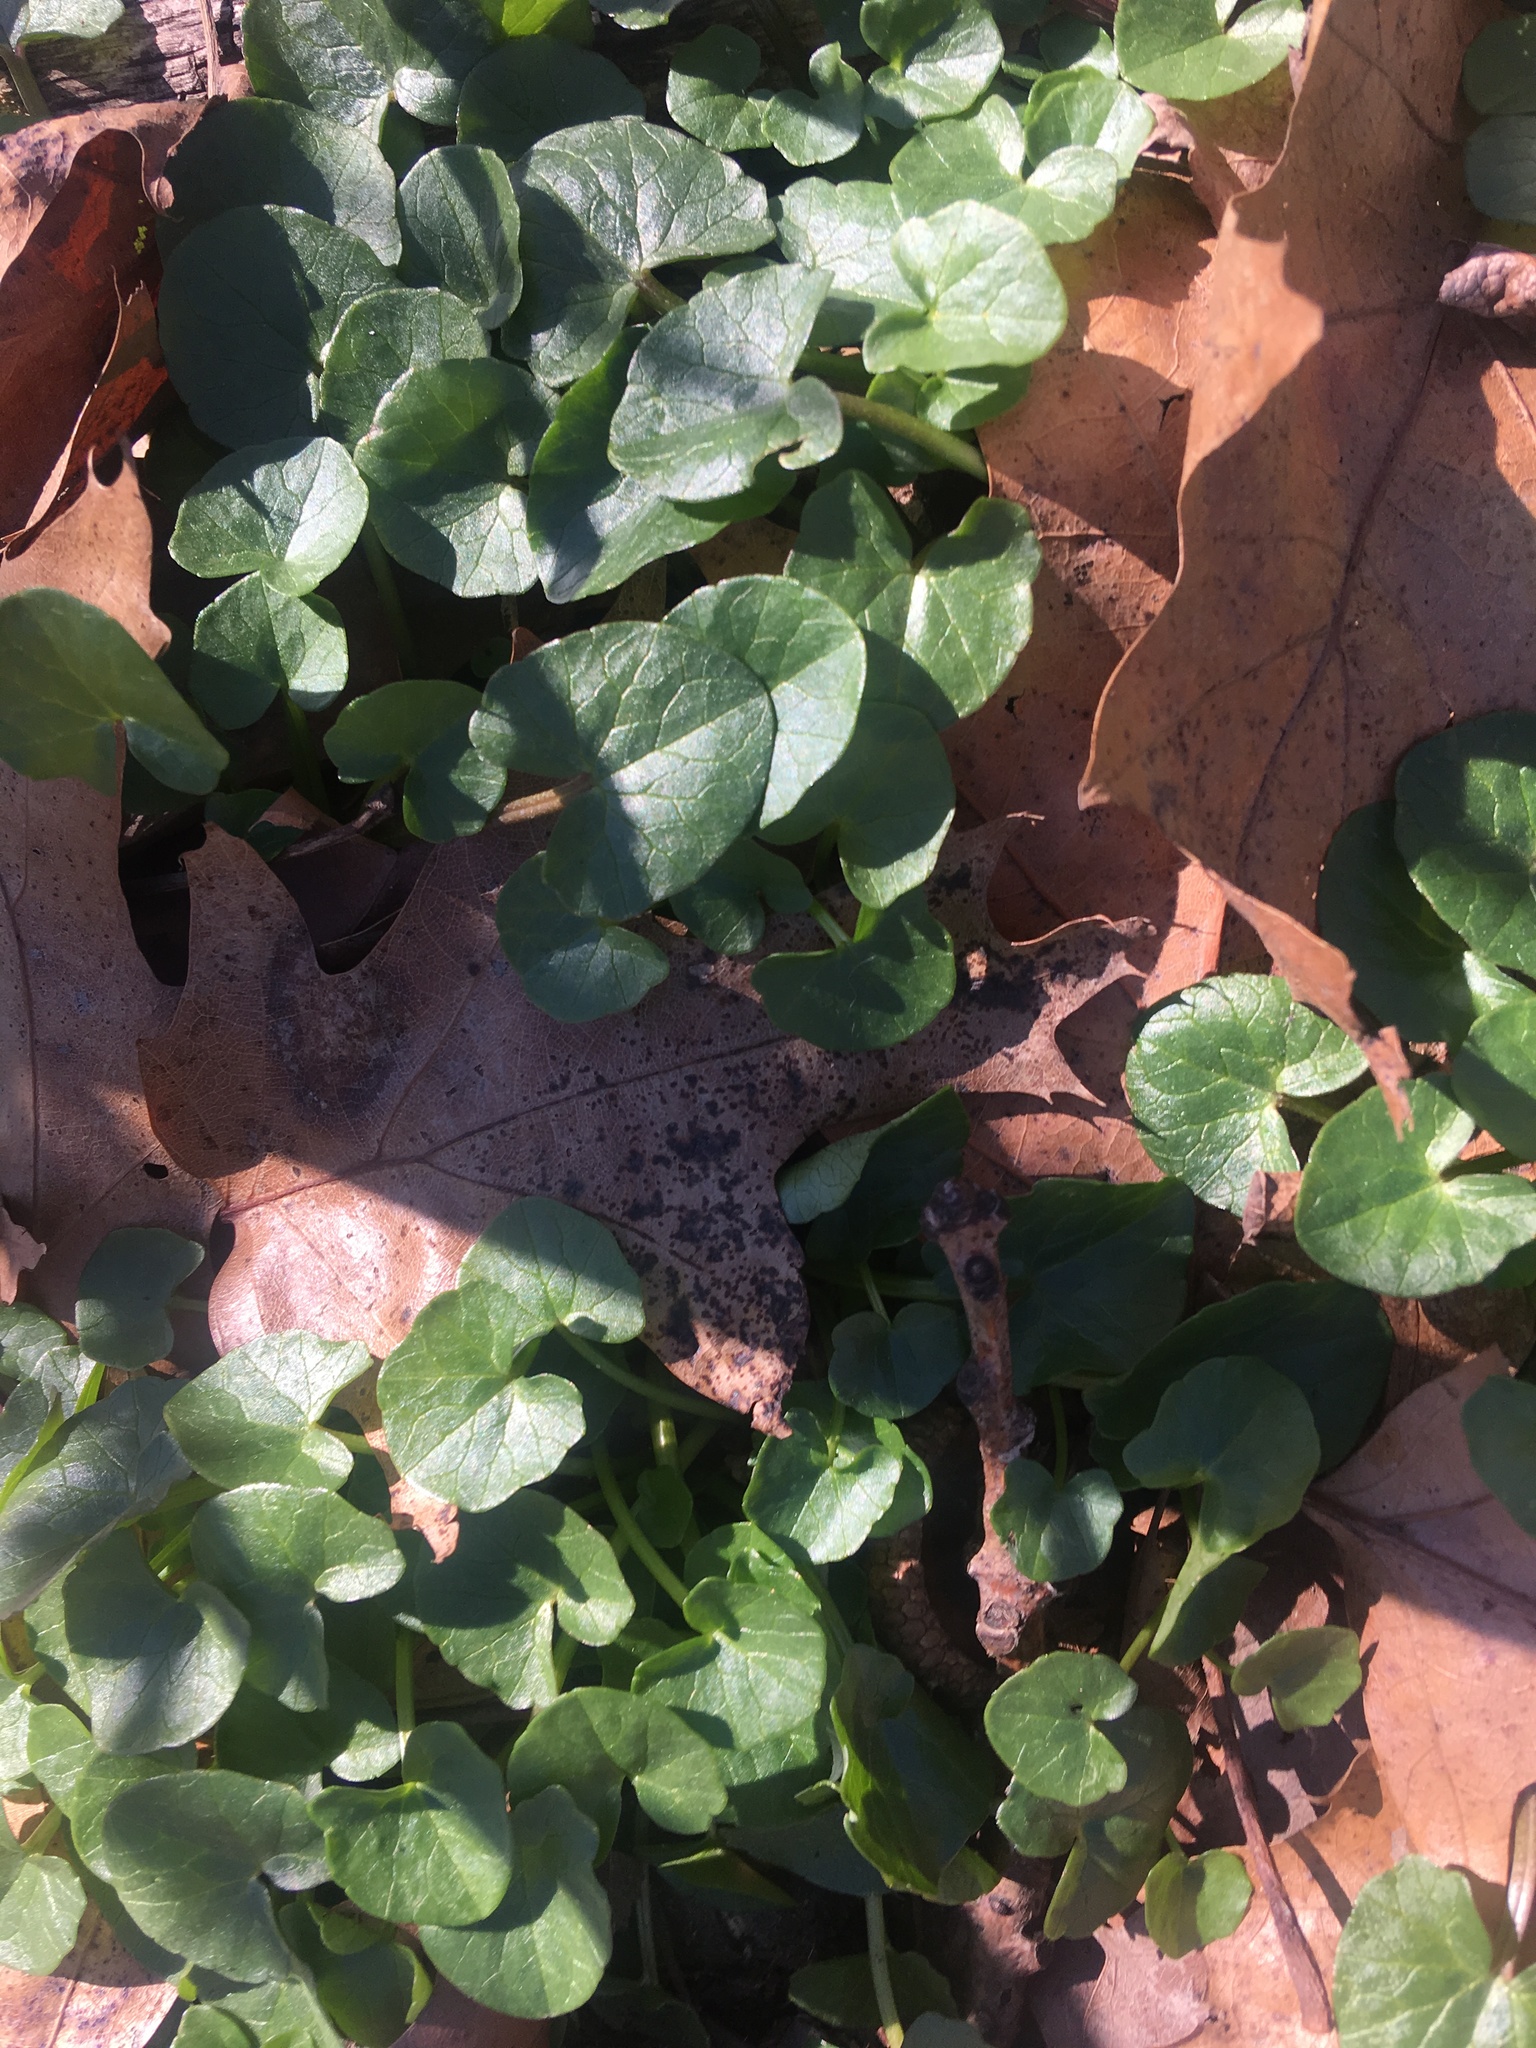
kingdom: Plantae
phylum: Tracheophyta
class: Magnoliopsida
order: Ranunculales
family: Ranunculaceae
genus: Ficaria
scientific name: Ficaria verna
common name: Lesser celandine
